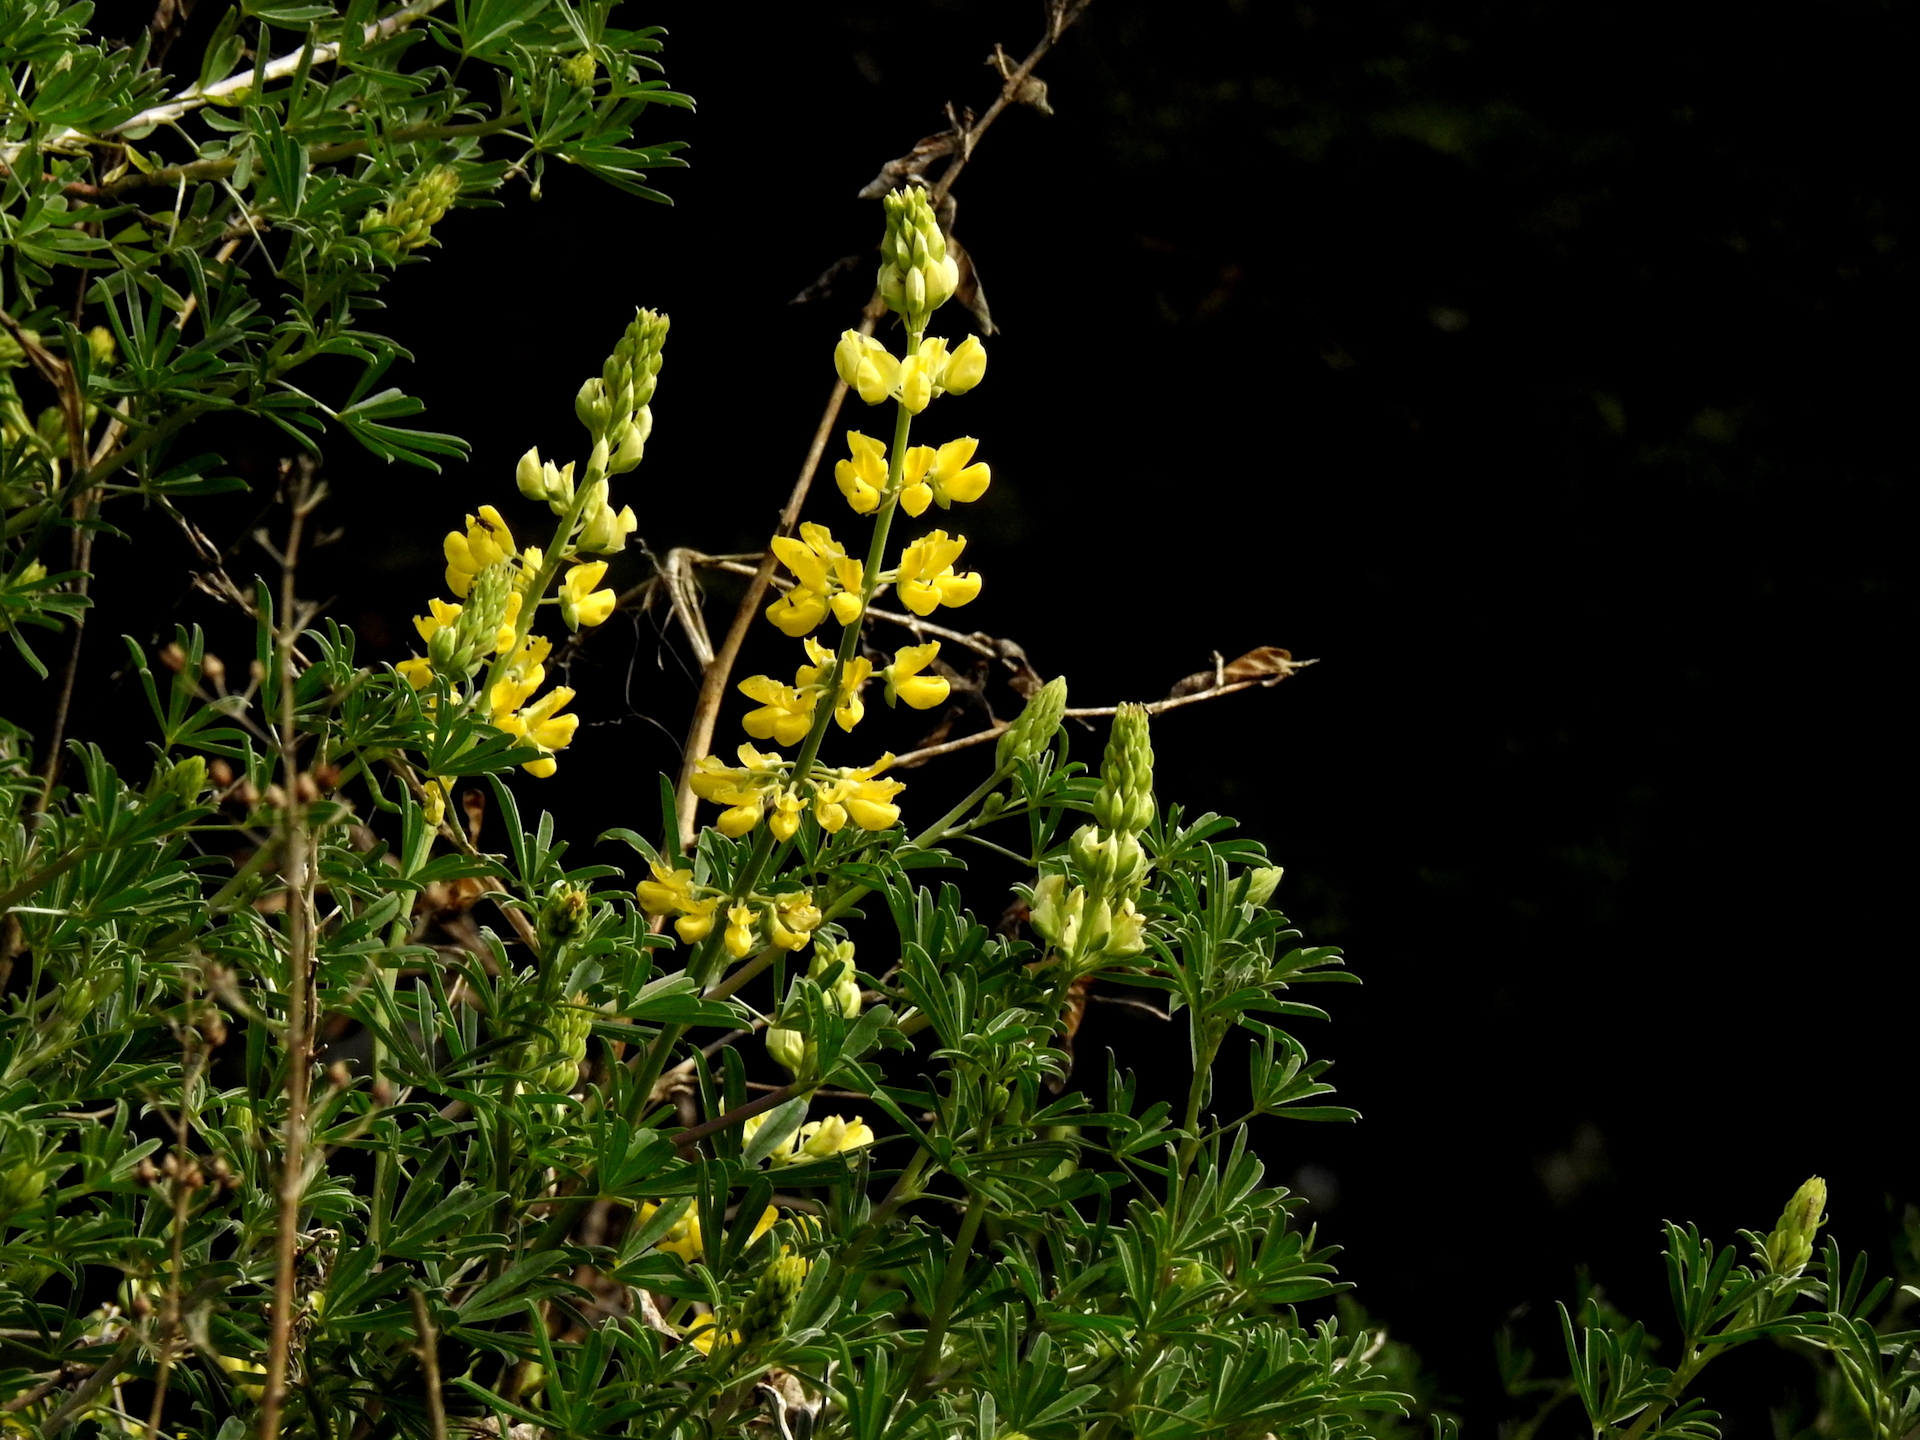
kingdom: Plantae
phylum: Tracheophyta
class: Magnoliopsida
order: Fabales
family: Fabaceae
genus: Lupinus
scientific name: Lupinus arboreus
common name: Yellow bush lupine
